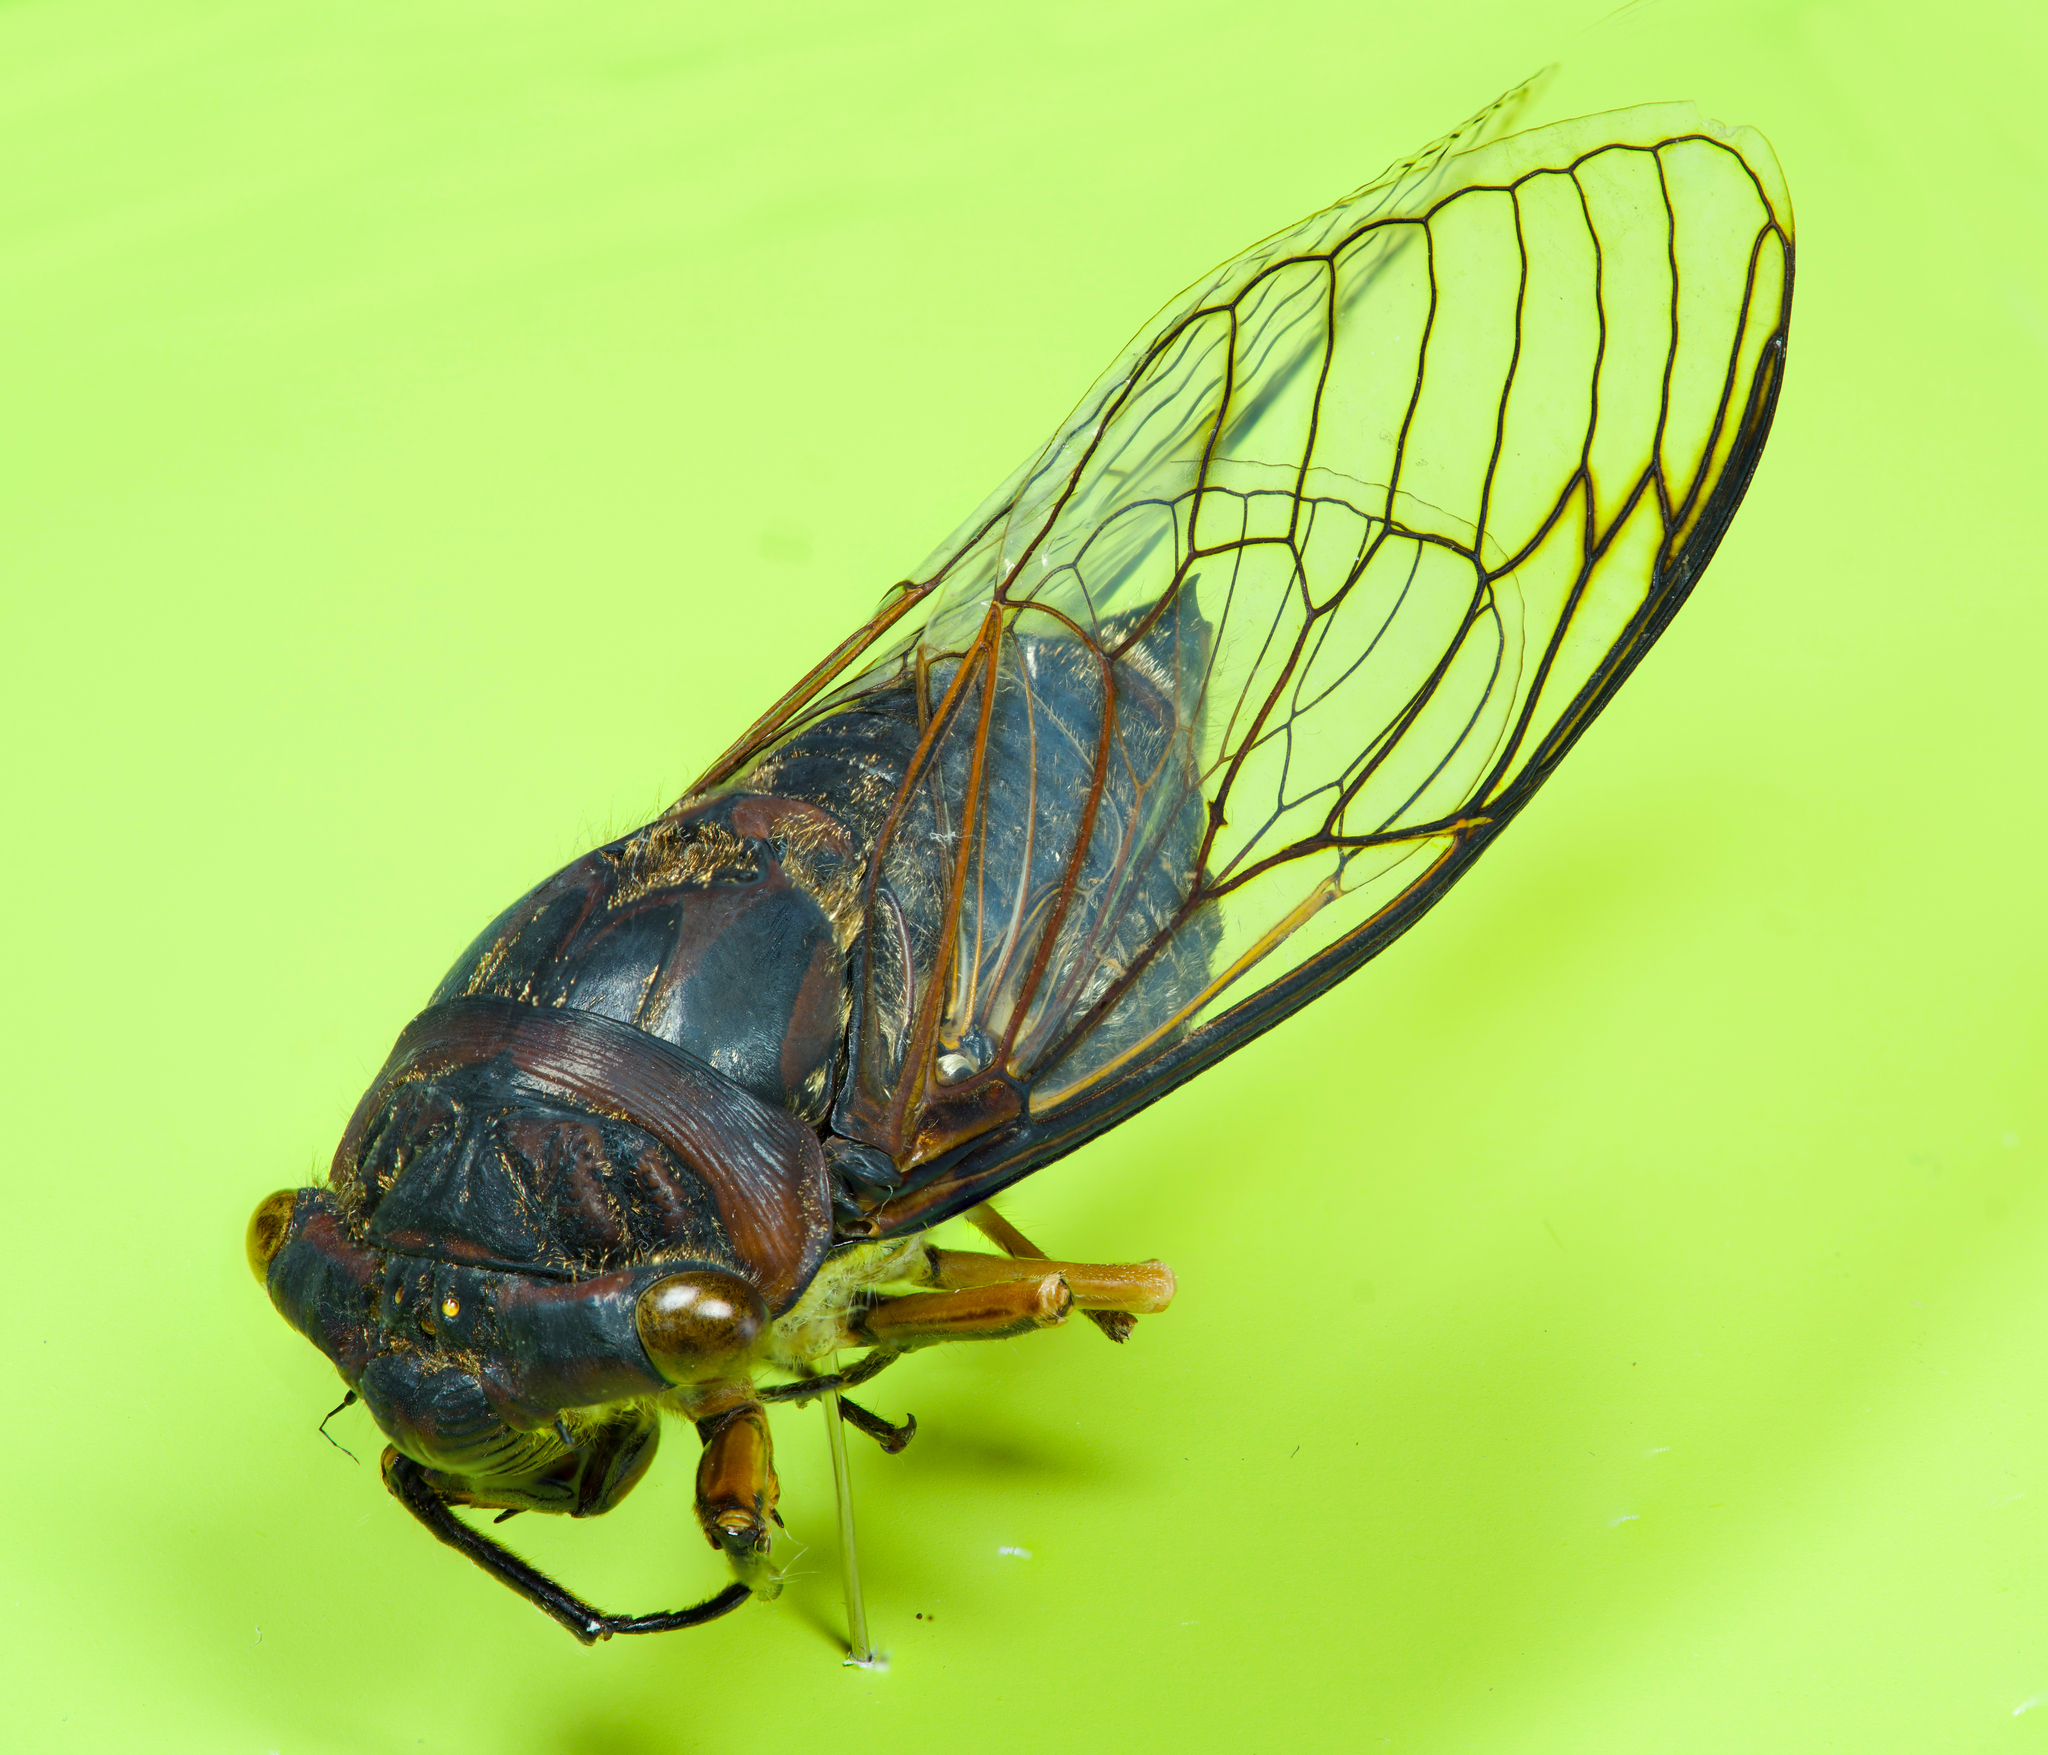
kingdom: Animalia
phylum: Arthropoda
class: Insecta
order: Hemiptera
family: Cicadidae
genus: Psaltoda
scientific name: Psaltoda plaga
